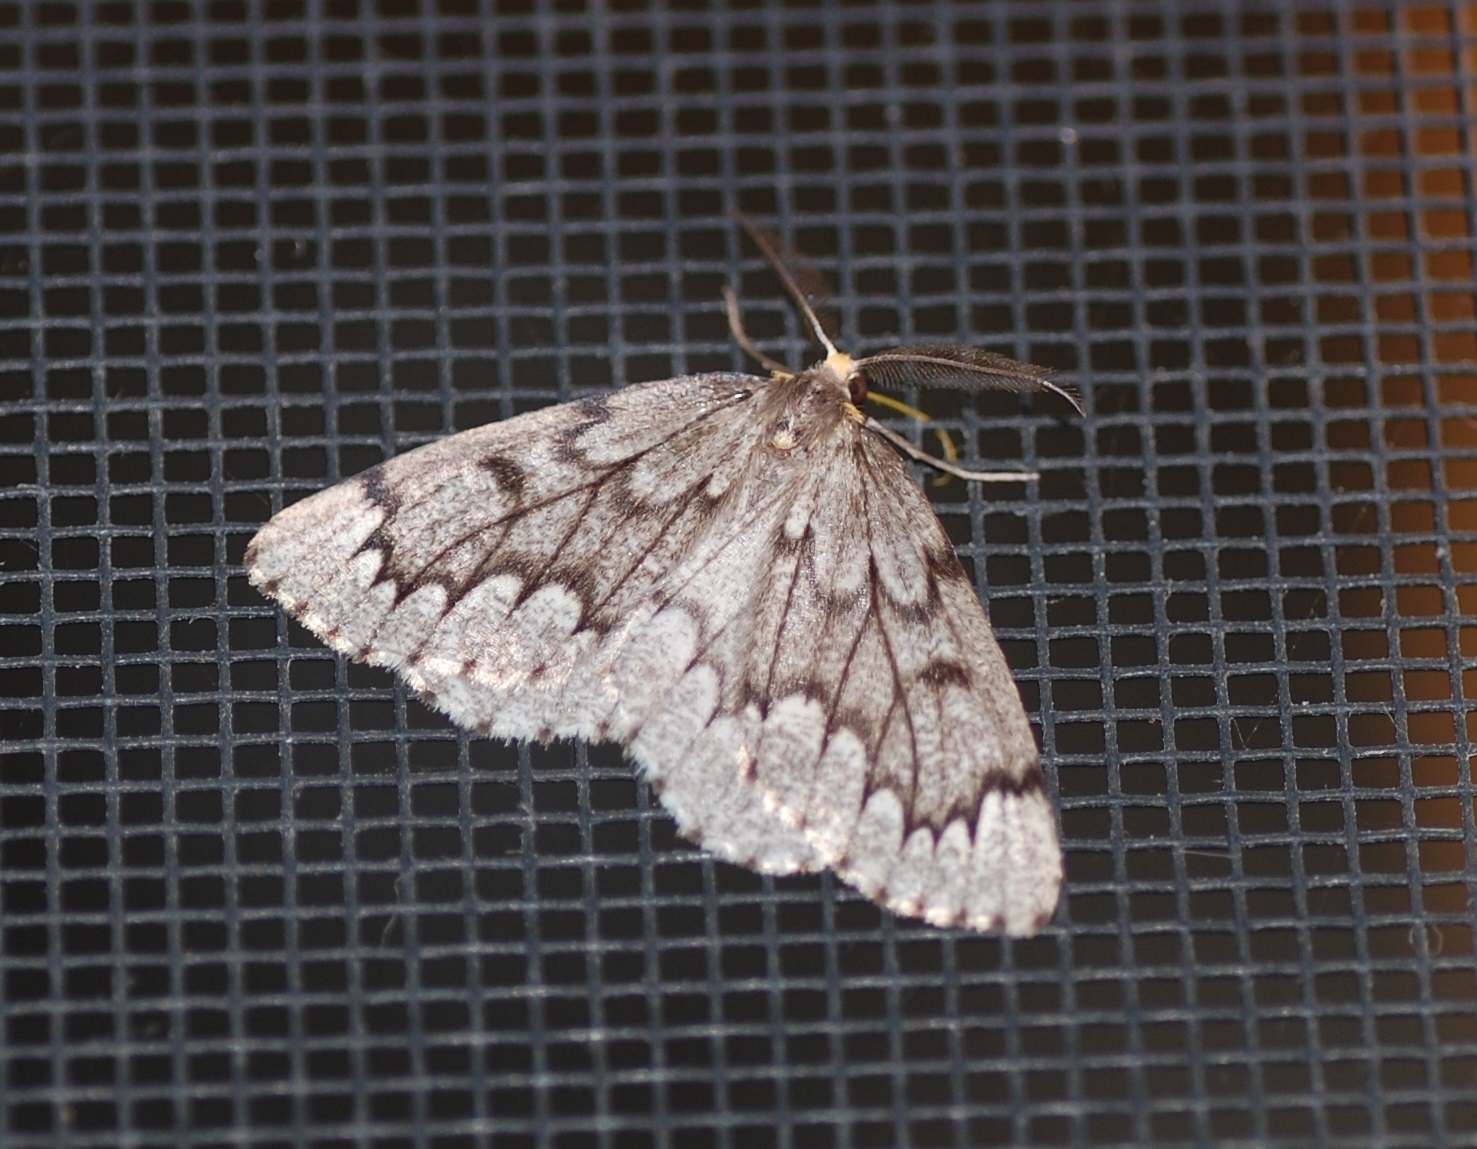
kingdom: Animalia
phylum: Arthropoda
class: Insecta
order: Lepidoptera
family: Geometridae
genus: Nepytia
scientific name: Nepytia canosaria
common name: False hemlock looper
